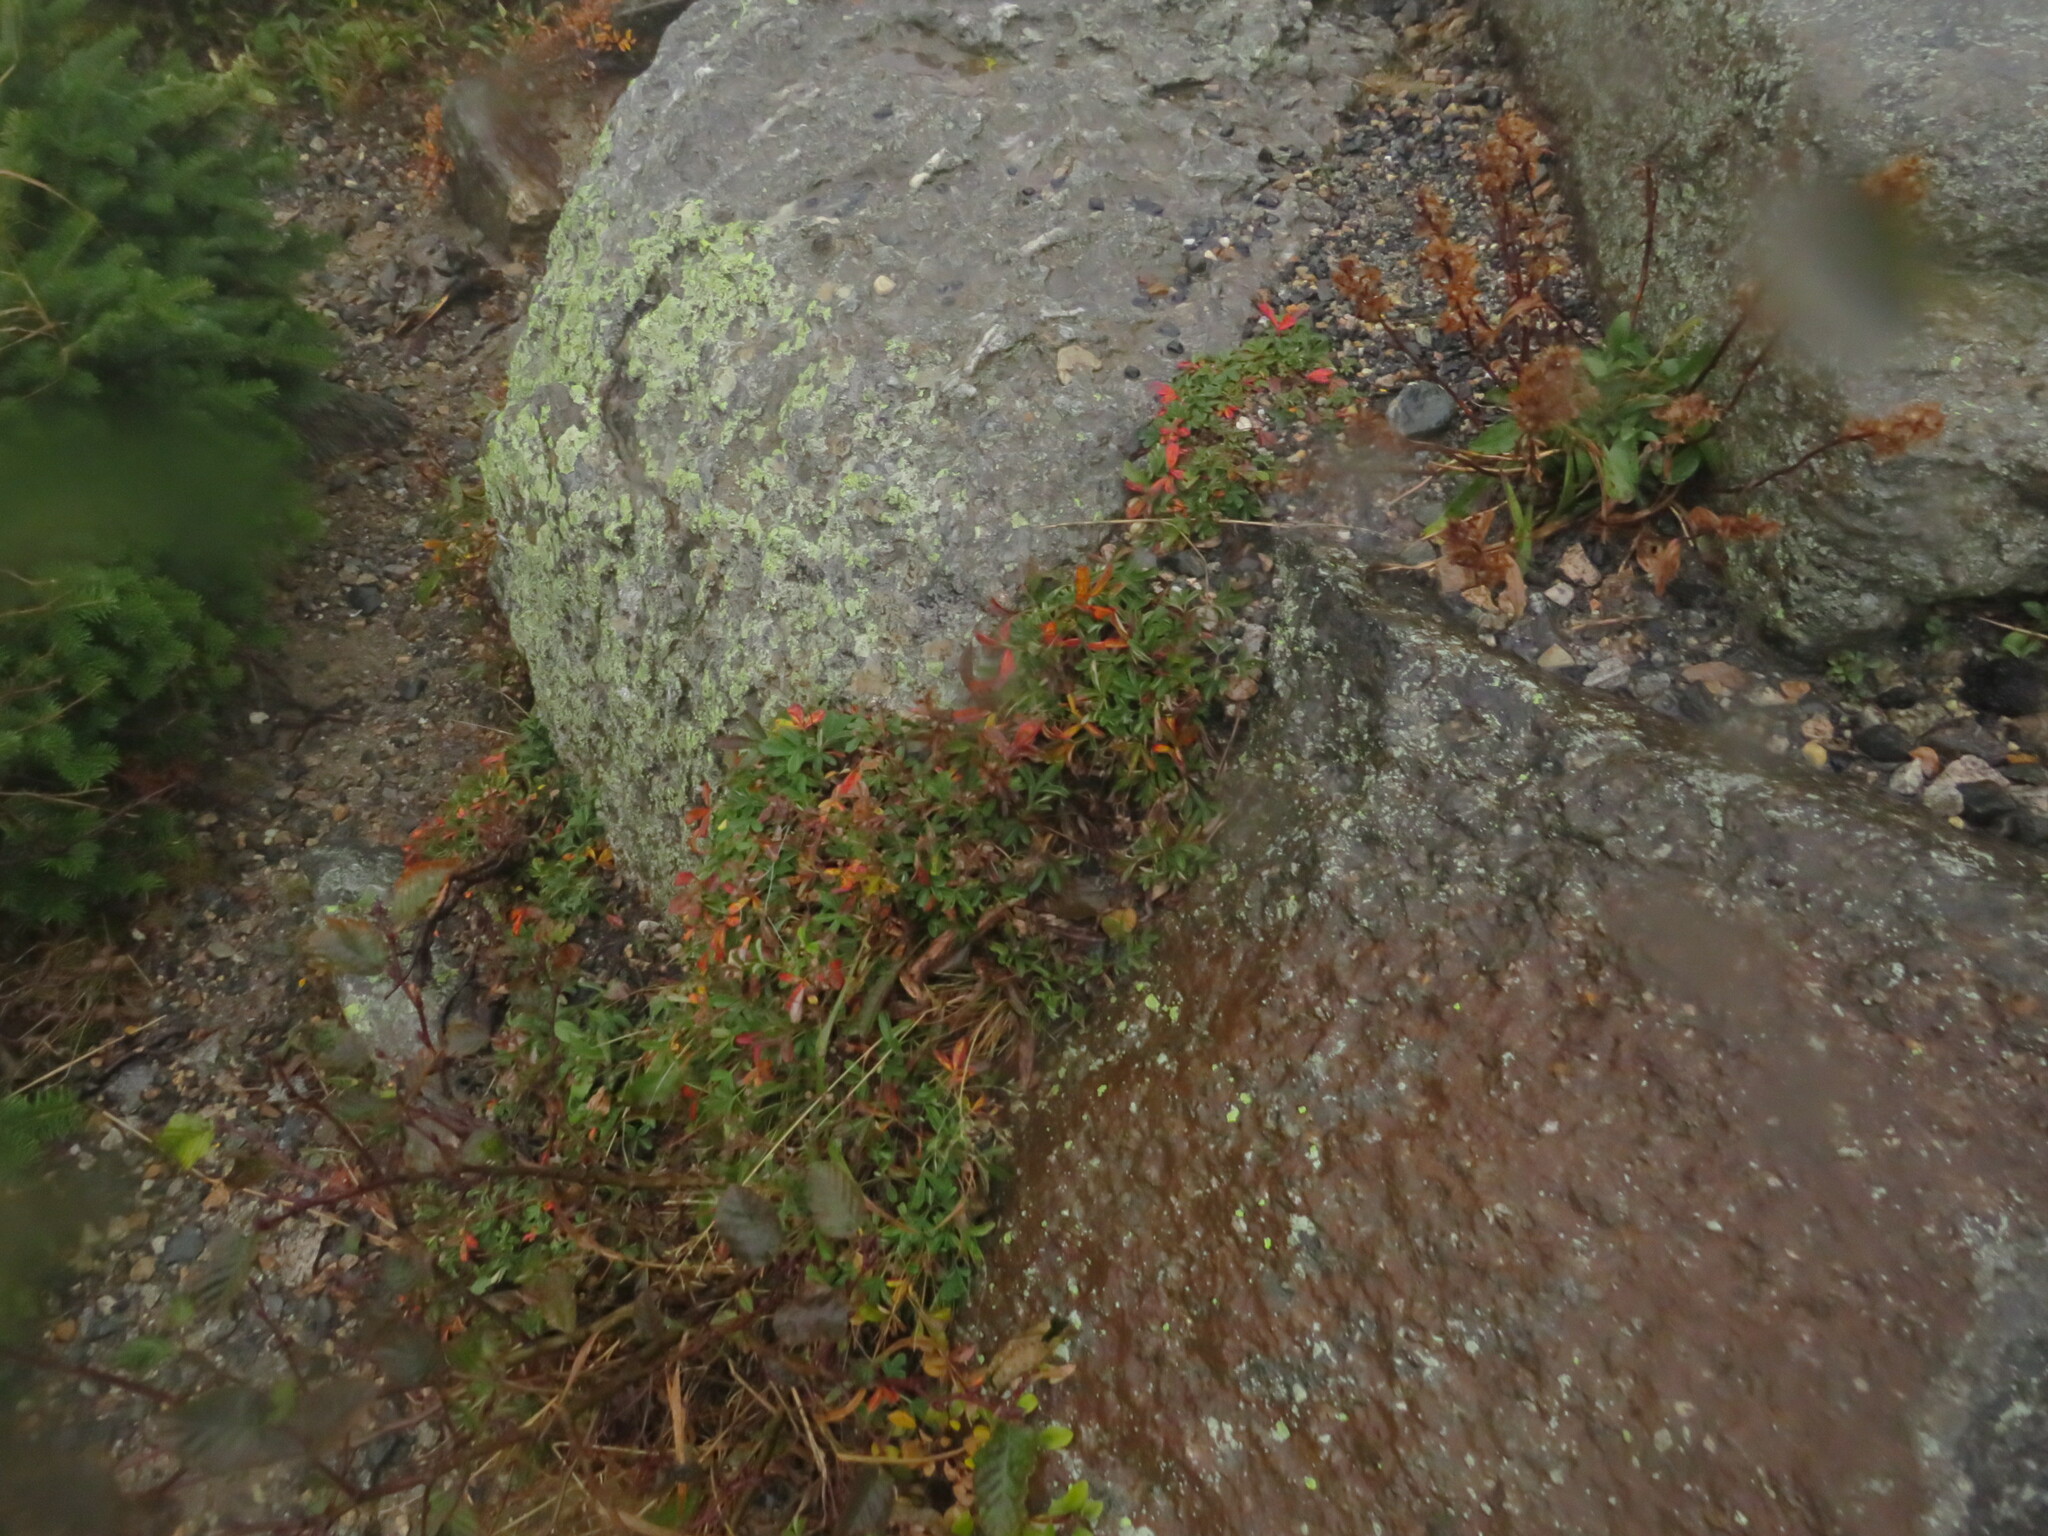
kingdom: Plantae
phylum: Tracheophyta
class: Magnoliopsida
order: Rosales
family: Rosaceae
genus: Sibbaldia
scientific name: Sibbaldia tridentata
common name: Three-toothed cinquefoil
